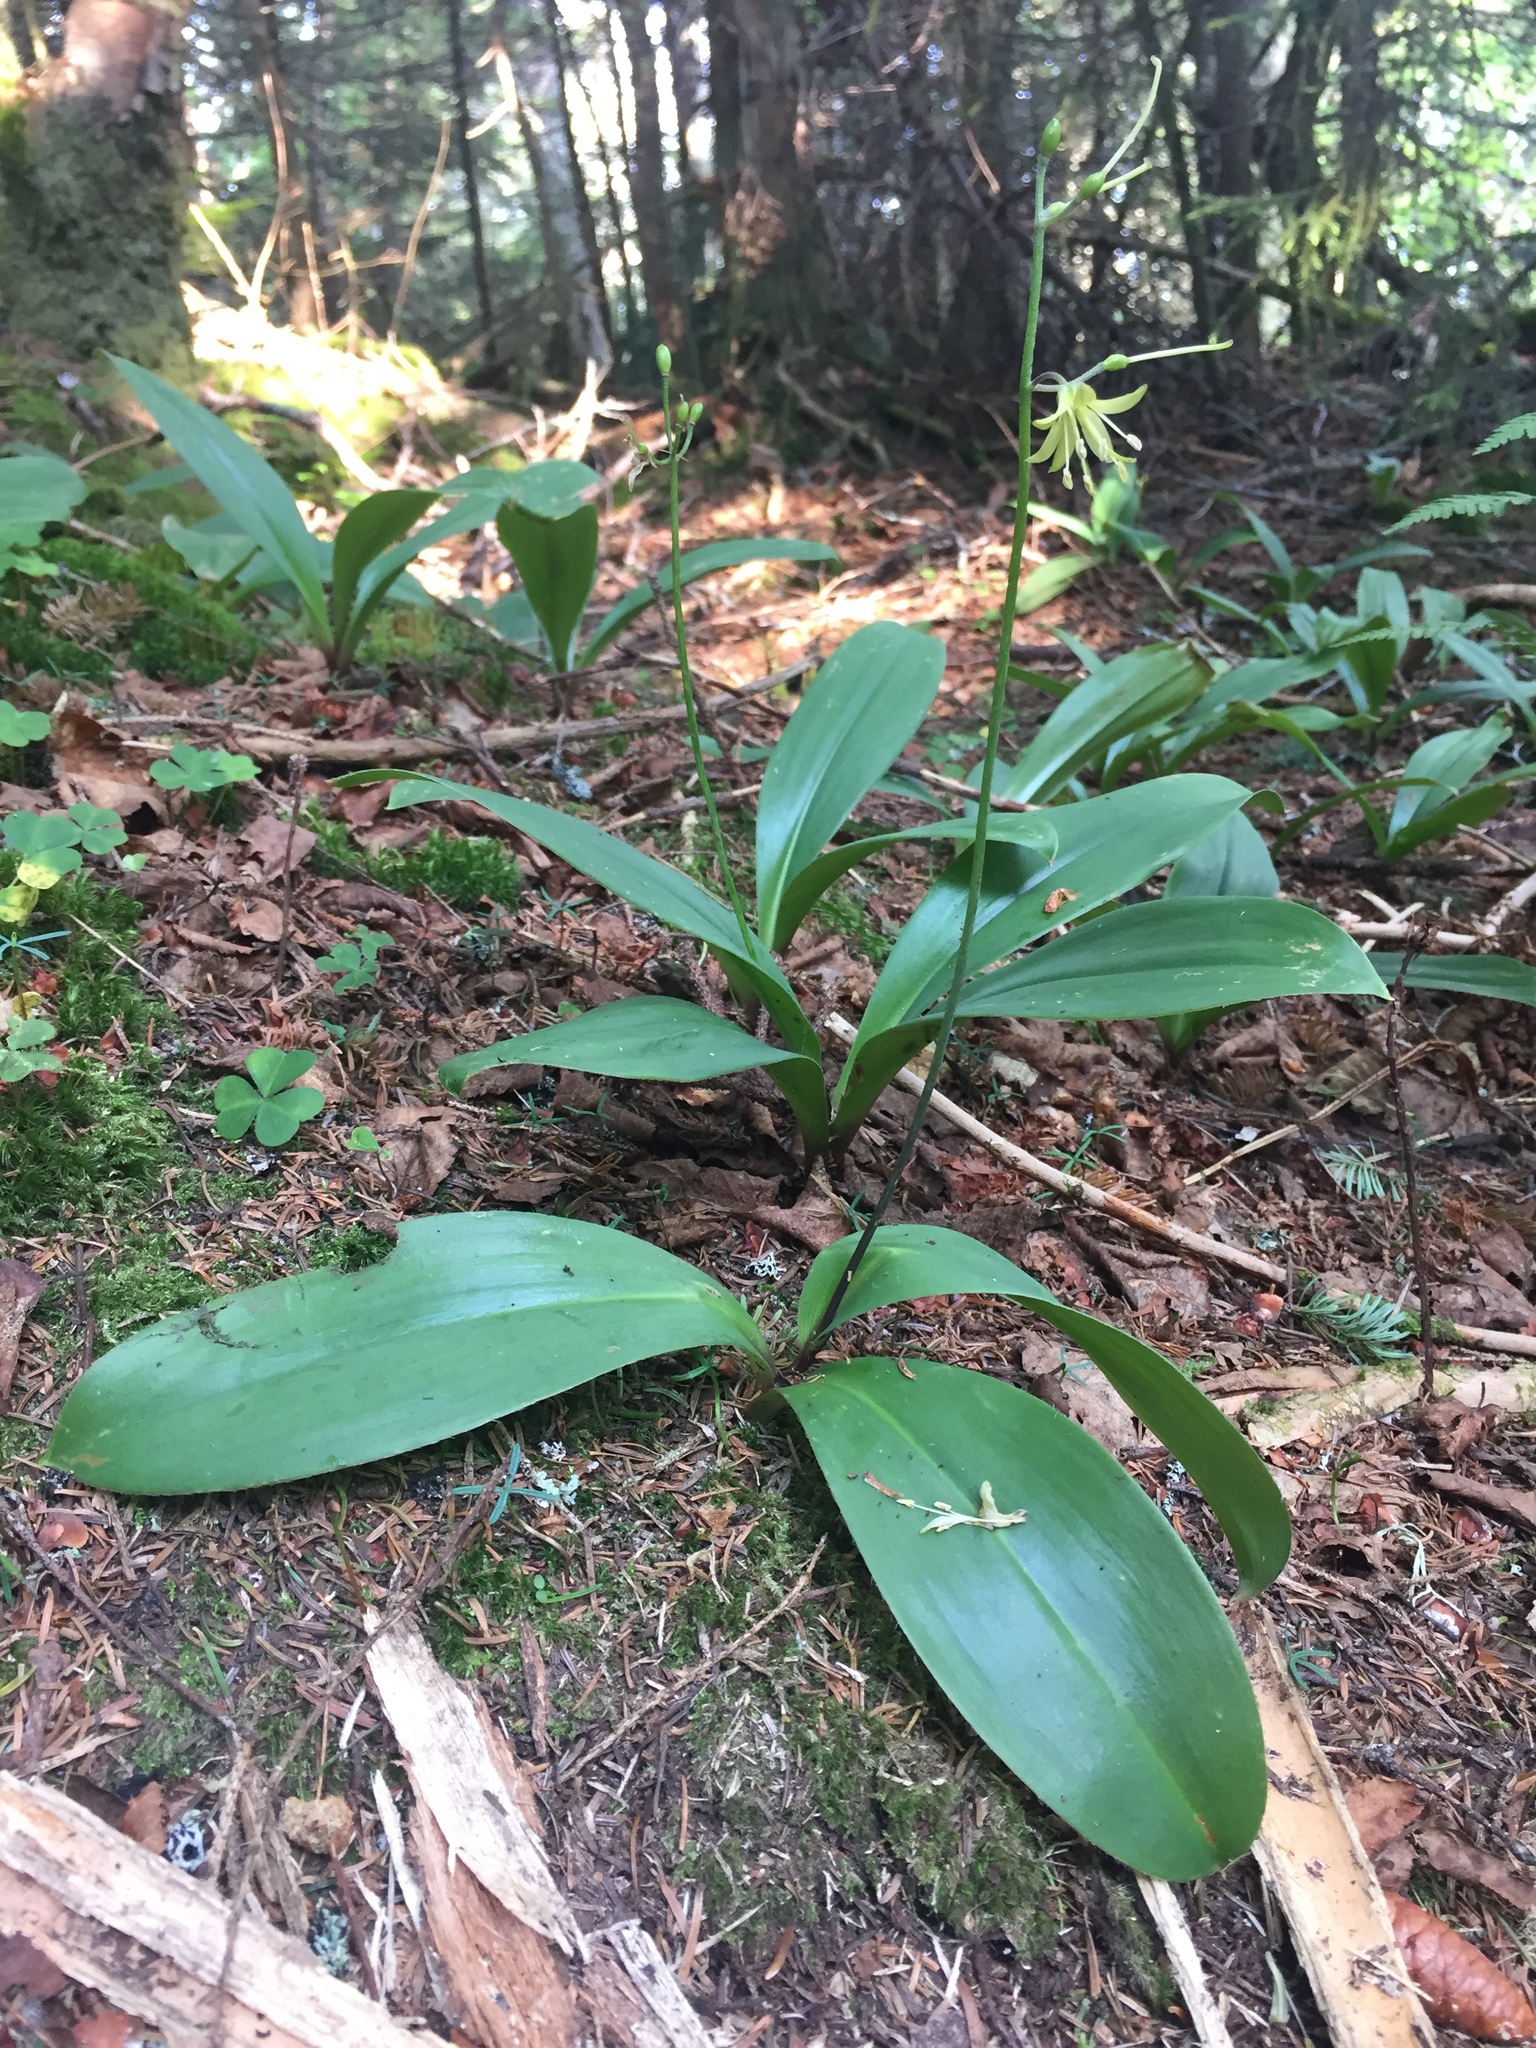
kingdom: Plantae
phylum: Tracheophyta
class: Liliopsida
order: Liliales
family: Liliaceae
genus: Clintonia
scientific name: Clintonia borealis
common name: Yellow clintonia
